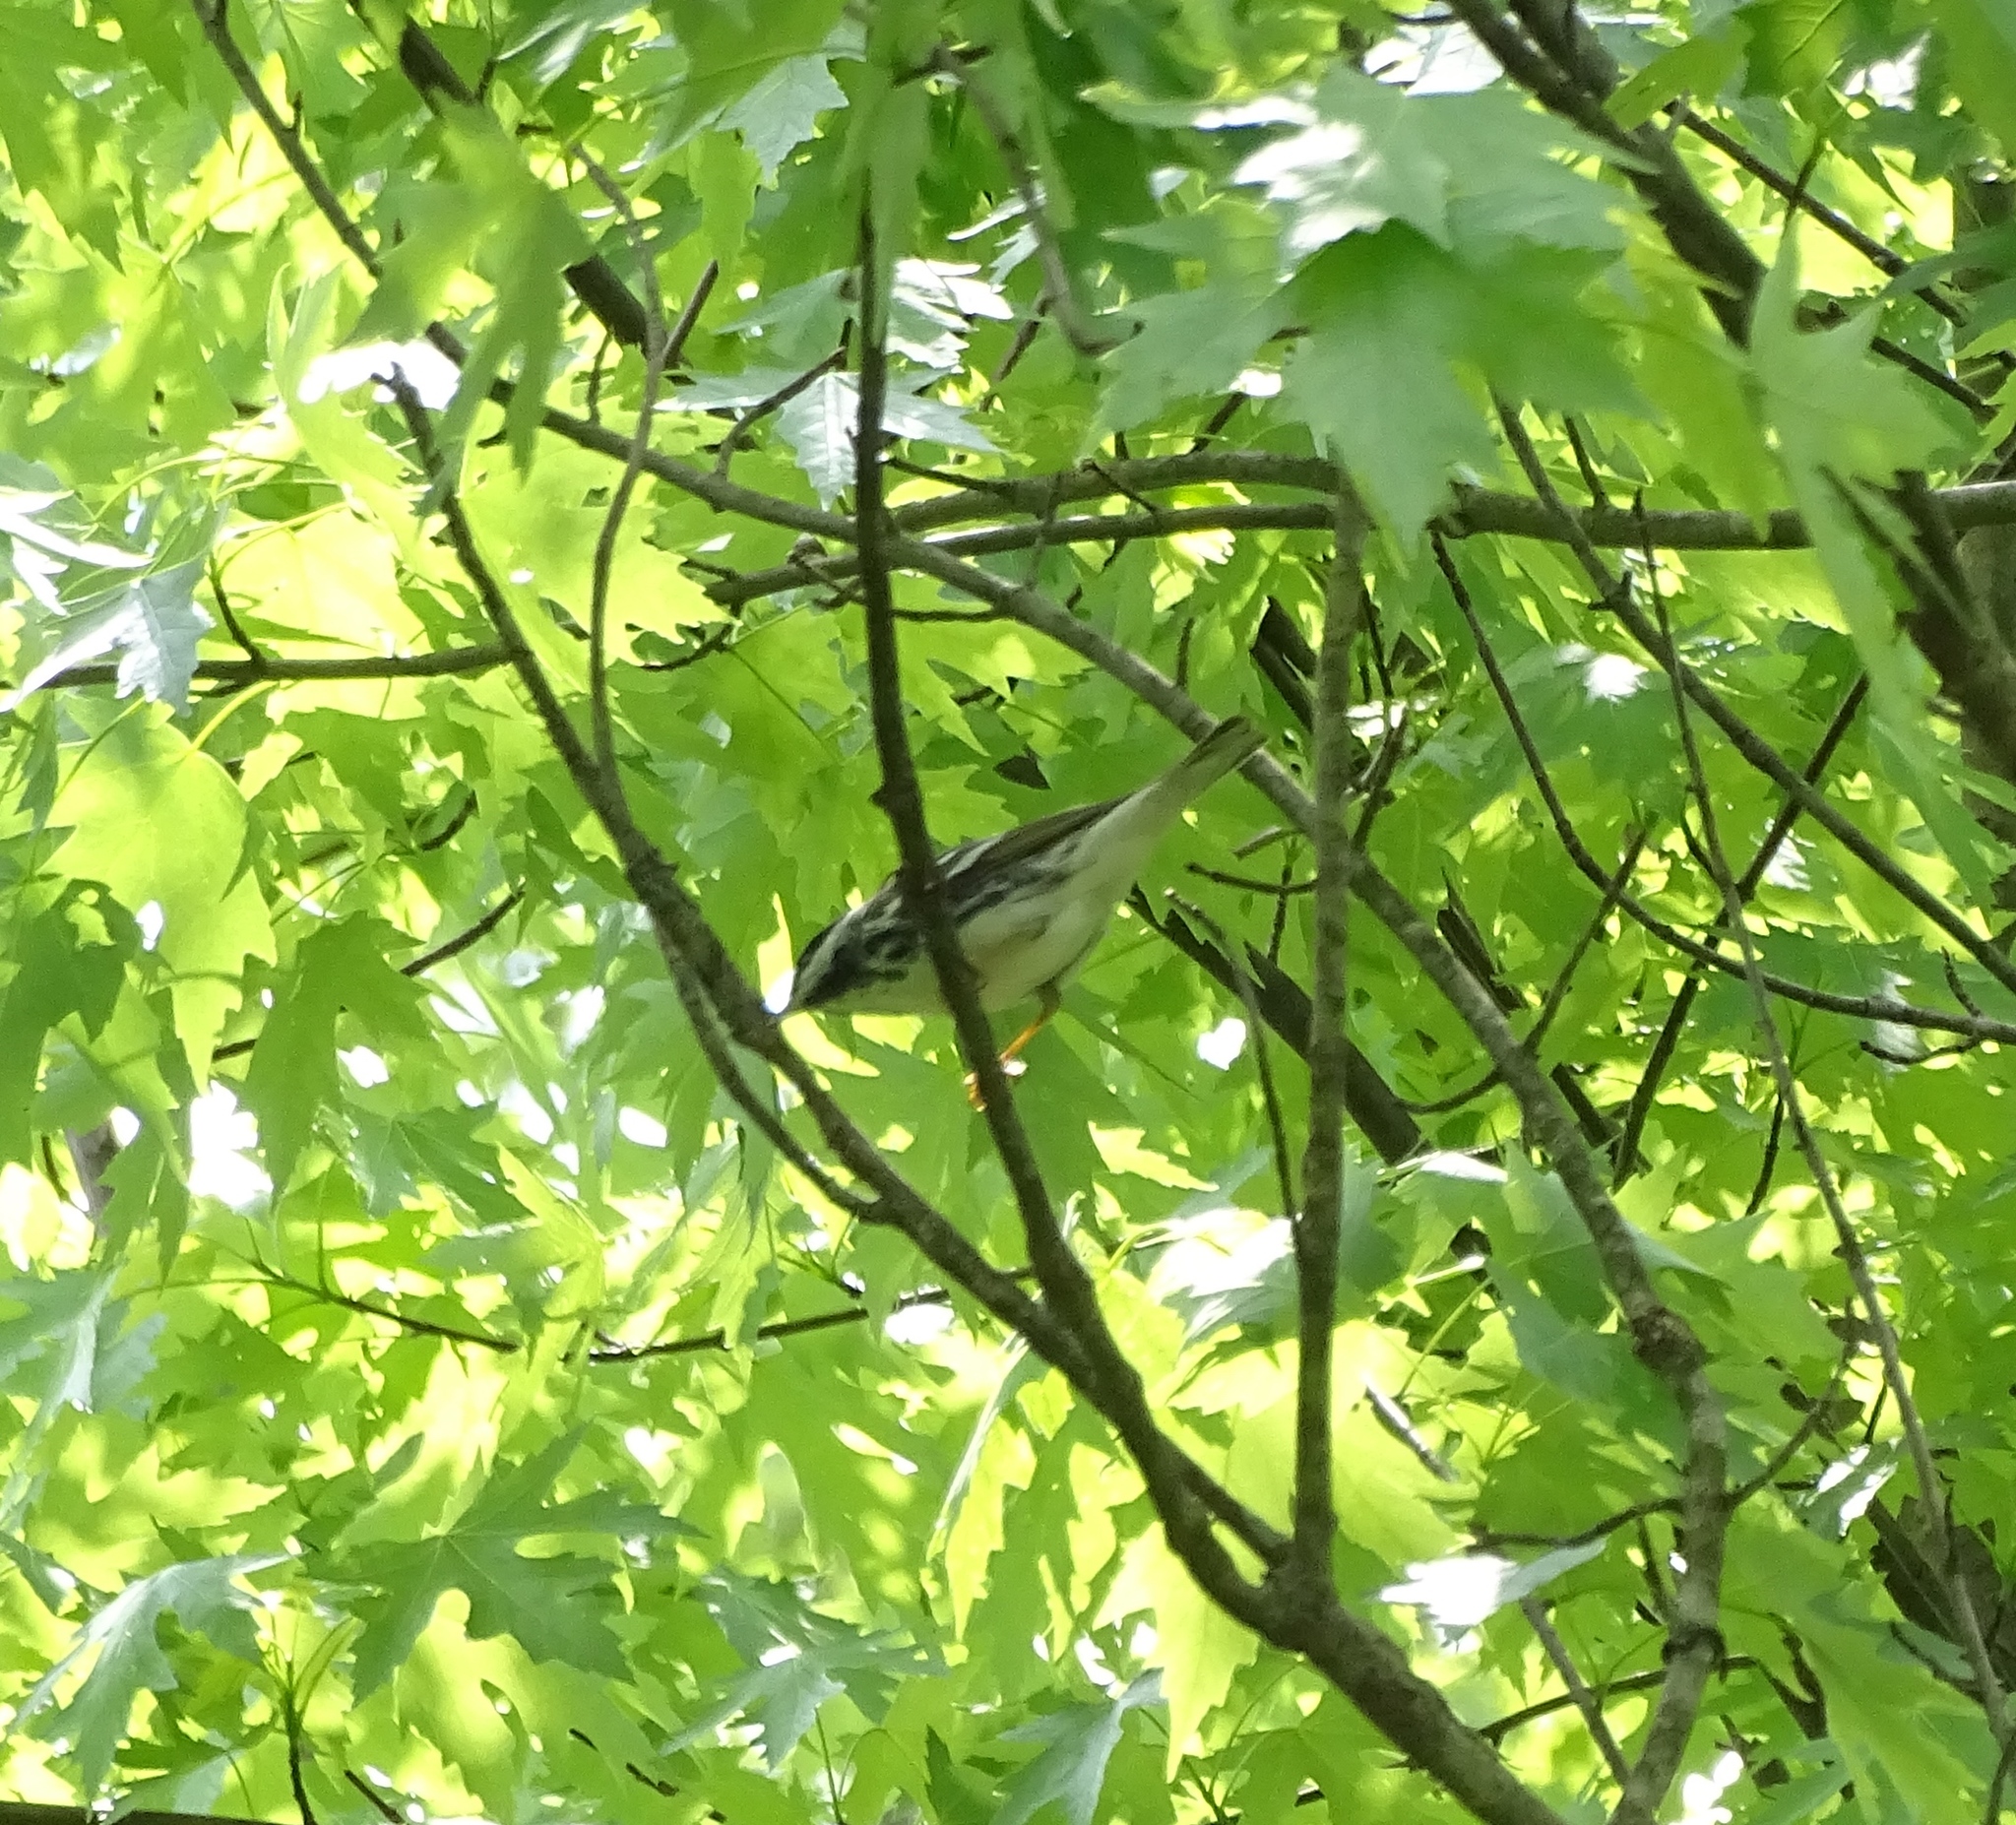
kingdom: Animalia
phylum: Chordata
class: Aves
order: Passeriformes
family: Parulidae
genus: Setophaga
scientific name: Setophaga striata
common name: Blackpoll warbler
